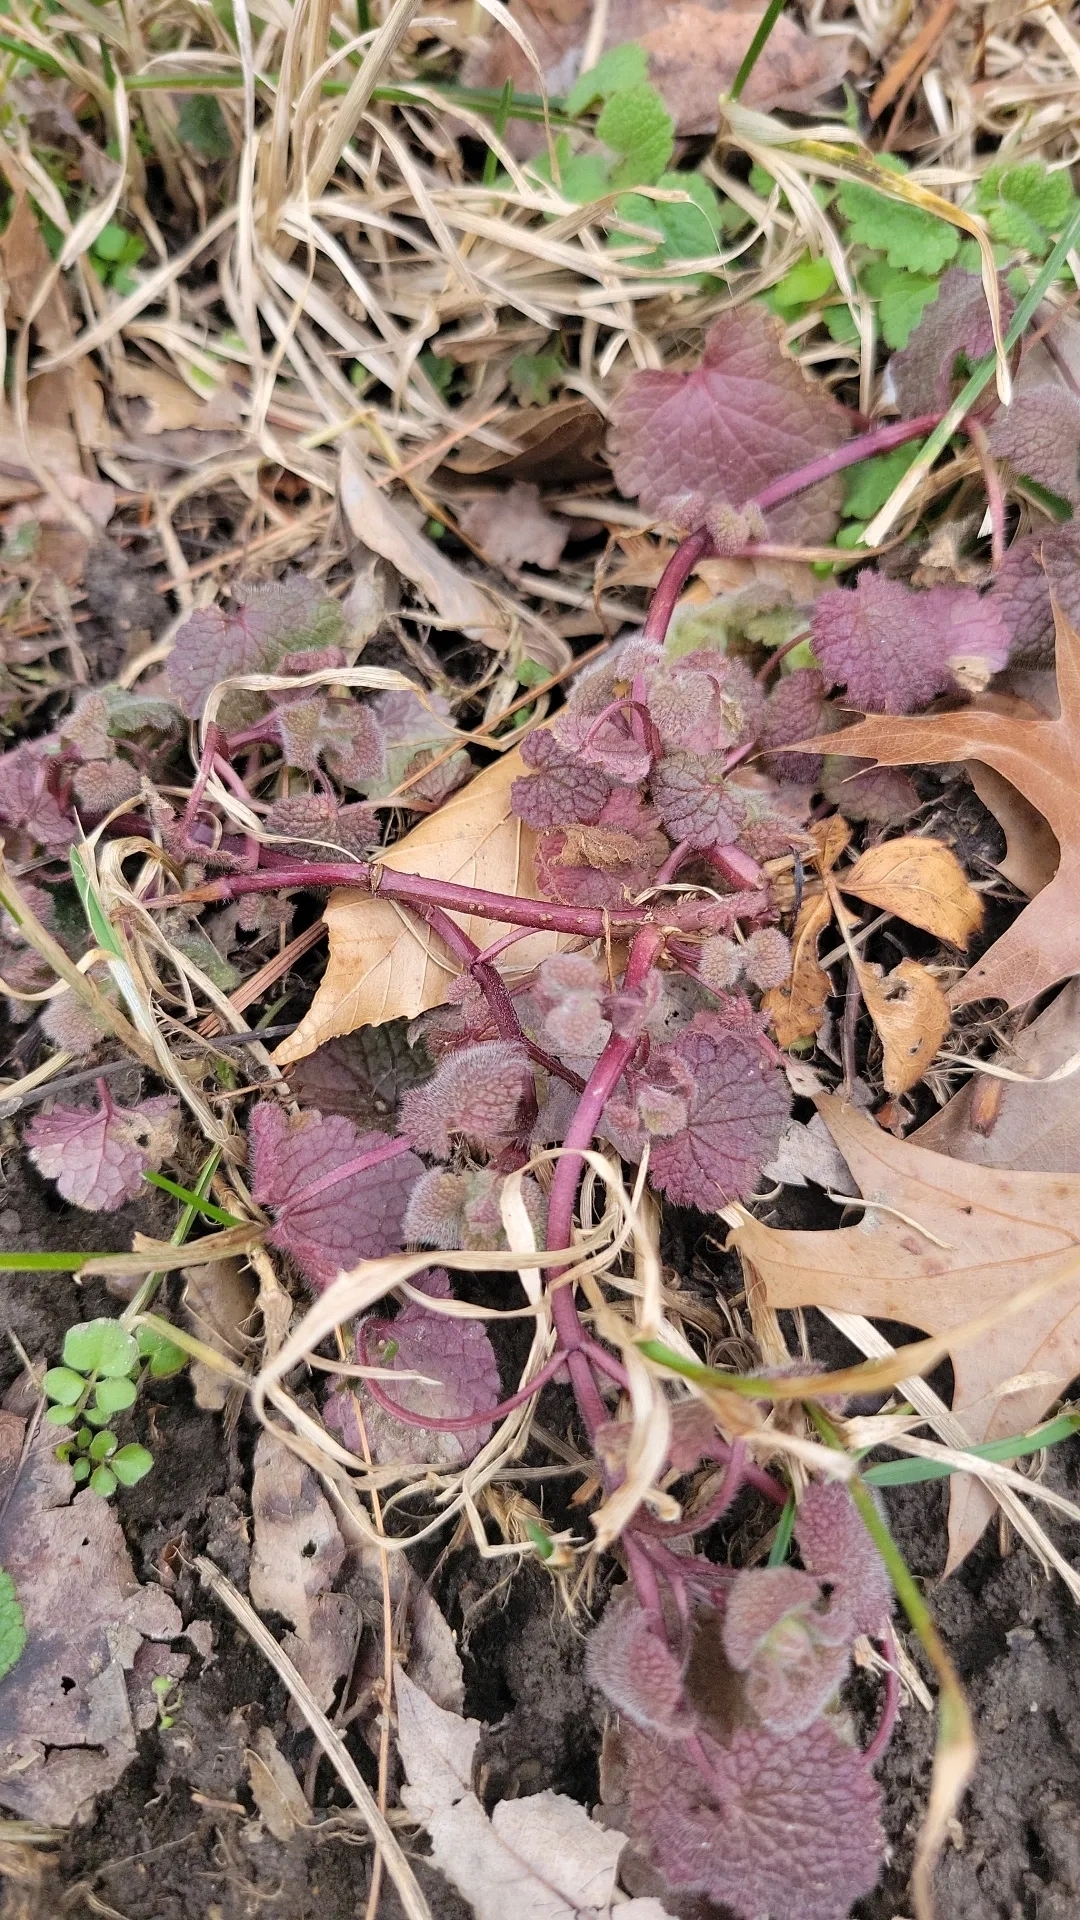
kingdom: Plantae
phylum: Tracheophyta
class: Magnoliopsida
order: Lamiales
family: Lamiaceae
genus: Lamium
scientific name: Lamium purpureum
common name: Red dead-nettle
